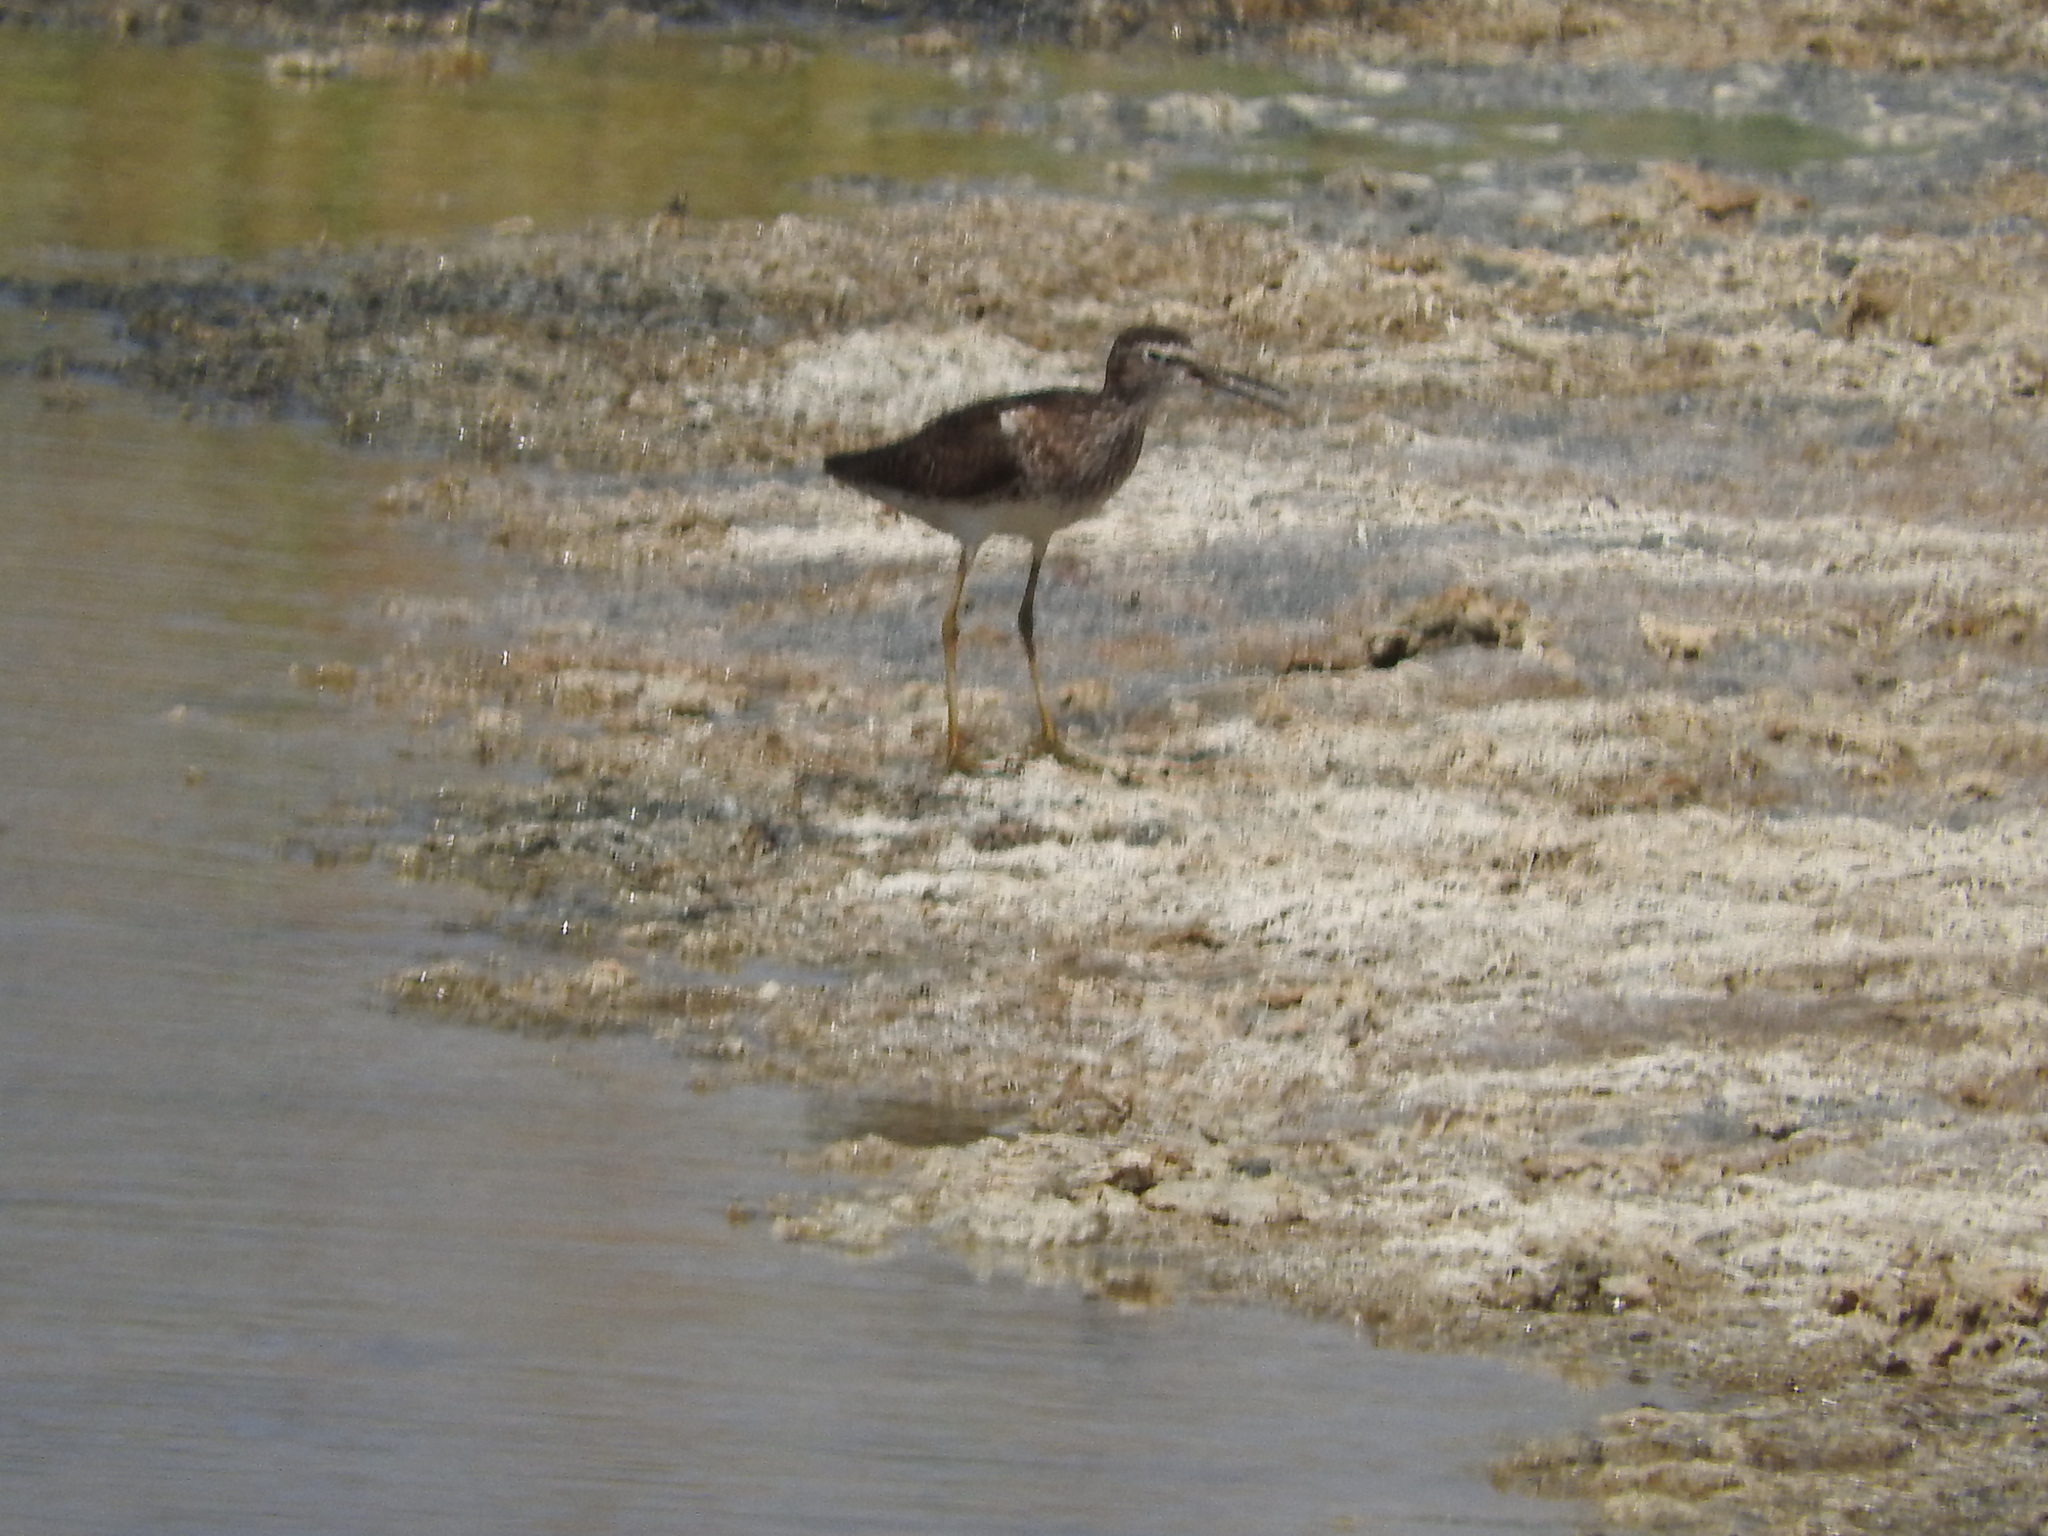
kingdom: Animalia
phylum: Chordata
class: Aves
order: Charadriiformes
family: Scolopacidae
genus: Tringa
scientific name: Tringa glareola
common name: Wood sandpiper
